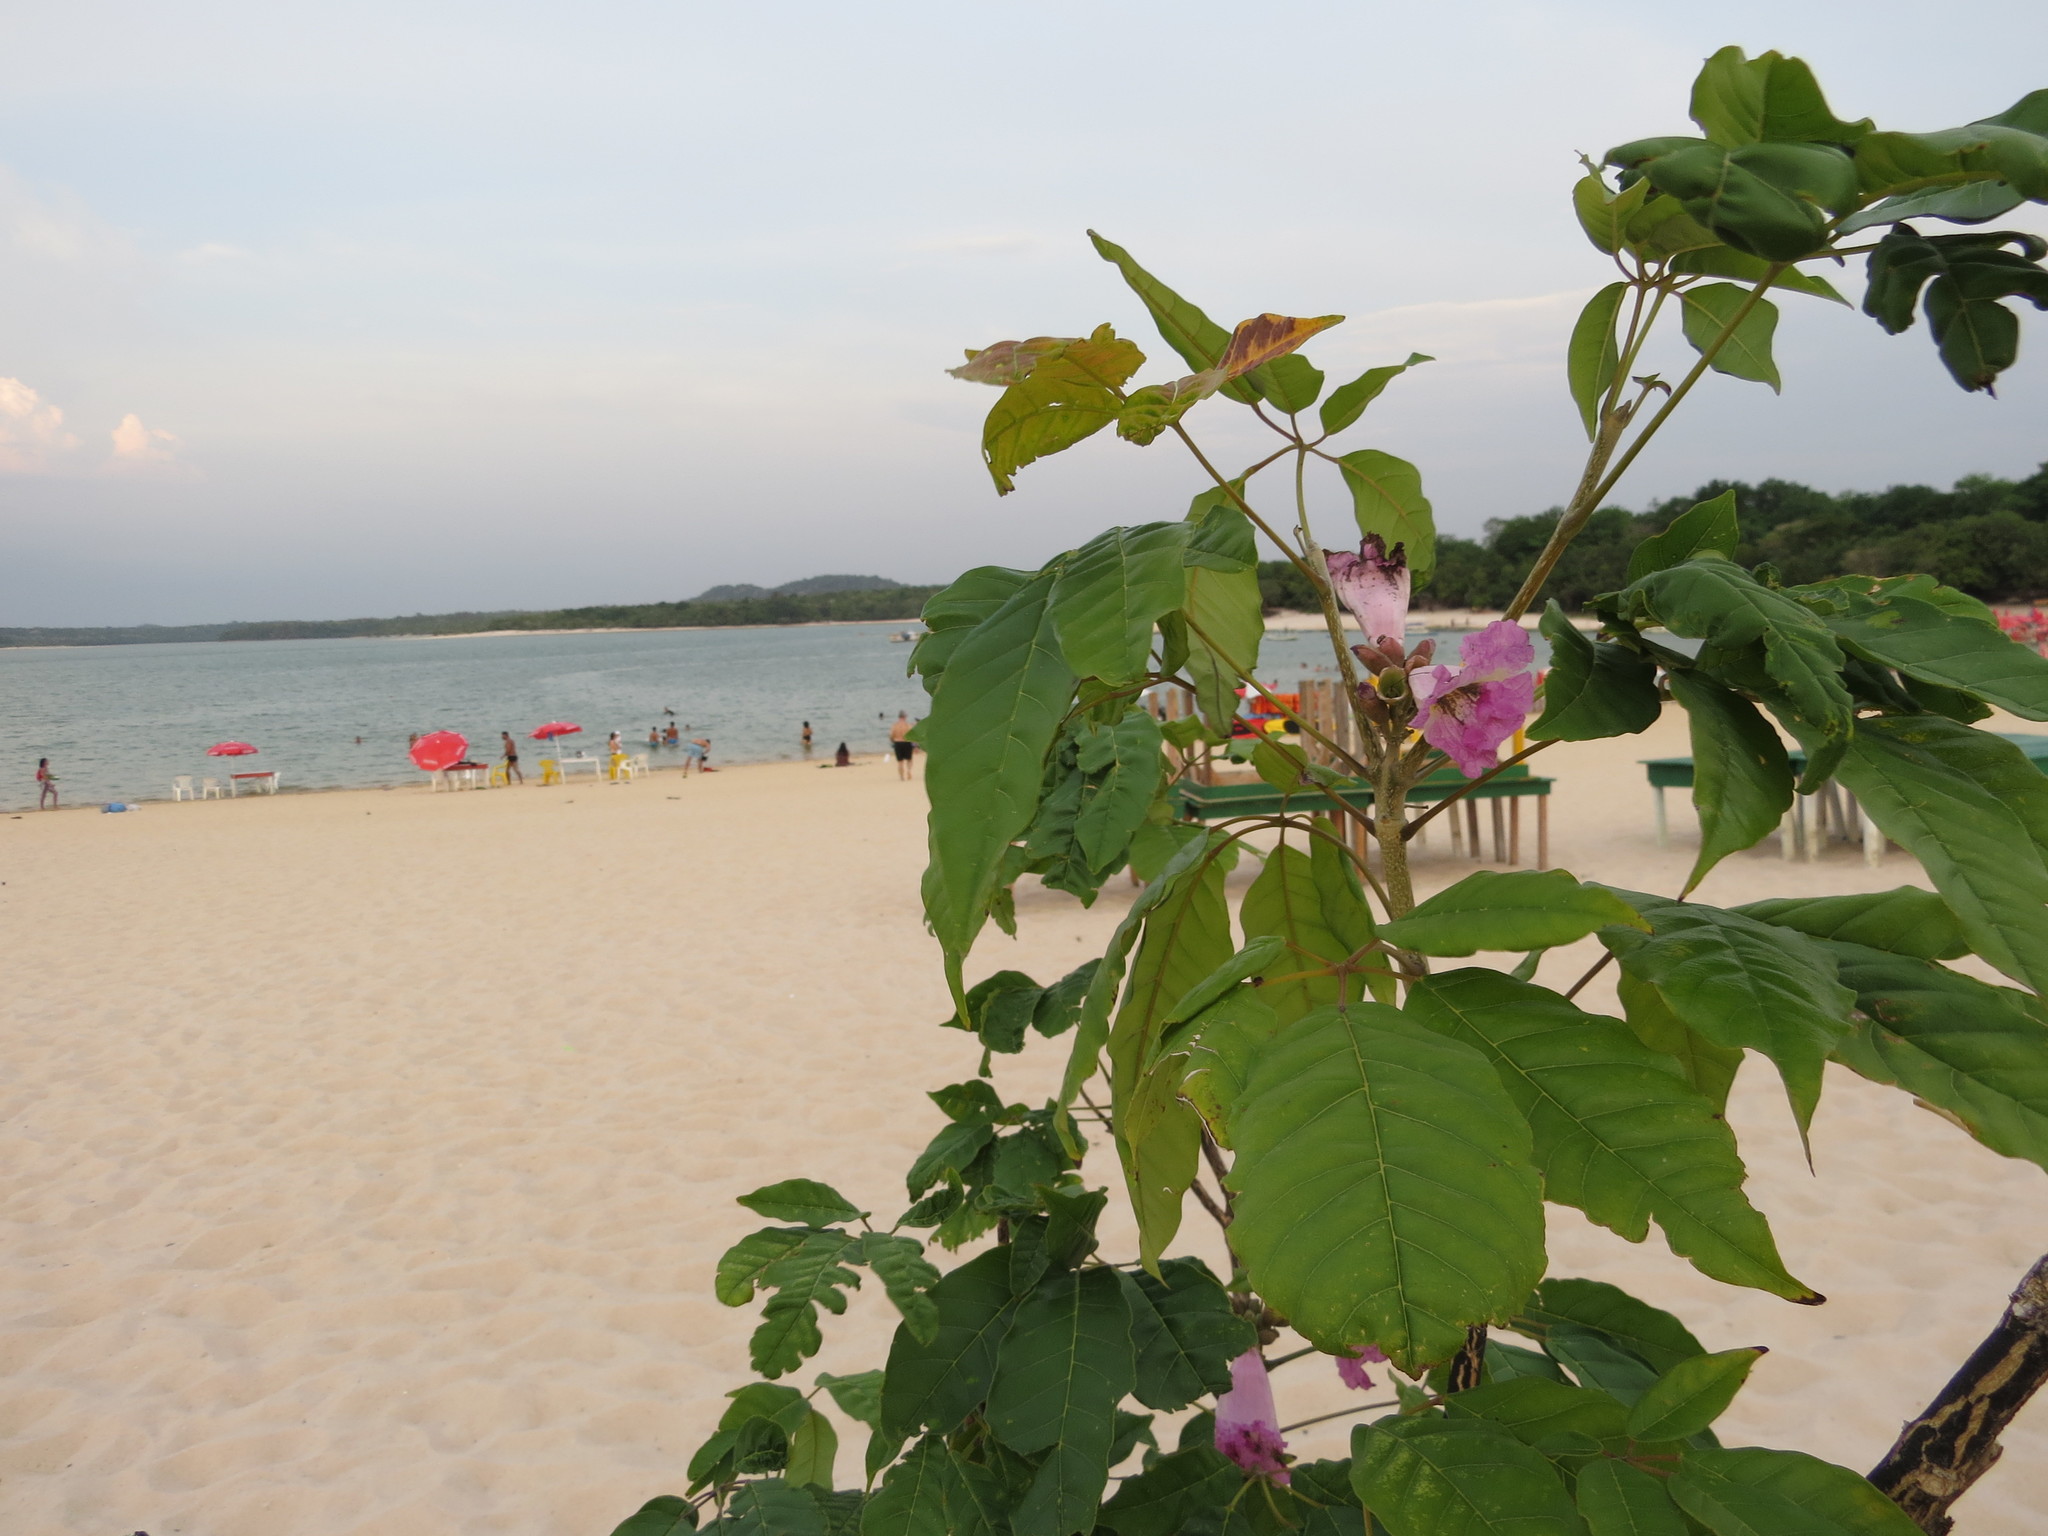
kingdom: Plantae
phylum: Tracheophyta
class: Magnoliopsida
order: Lamiales
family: Bignoniaceae
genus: Handroanthus
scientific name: Handroanthus barbatus
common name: Trumpet trees
